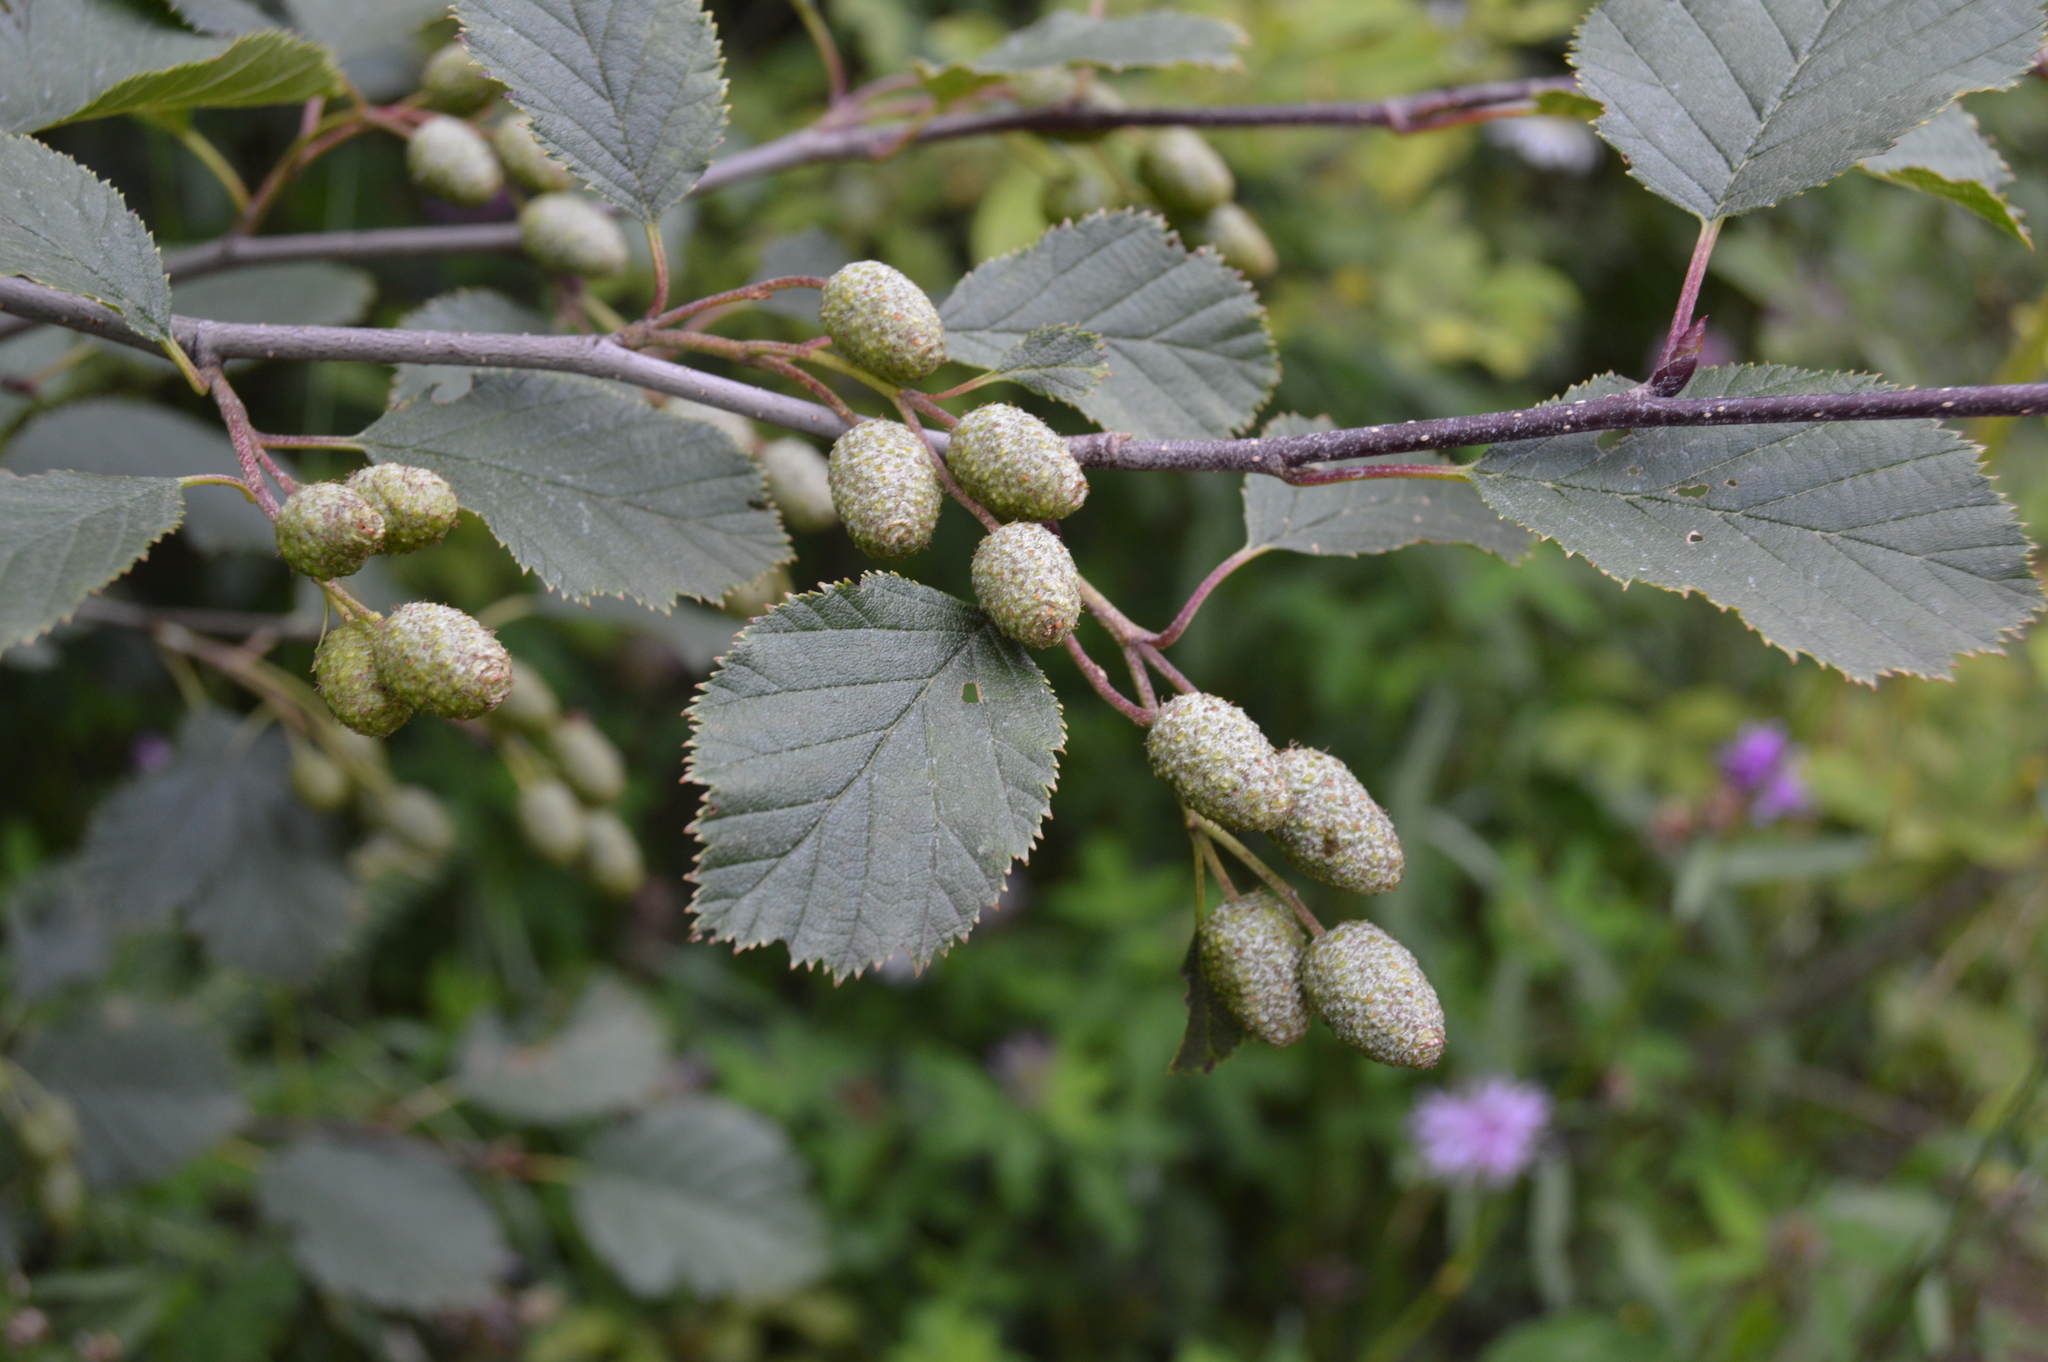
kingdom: Plantae
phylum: Tracheophyta
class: Magnoliopsida
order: Fagales
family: Betulaceae
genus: Alnus
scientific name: Alnus incana
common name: Grey alder
